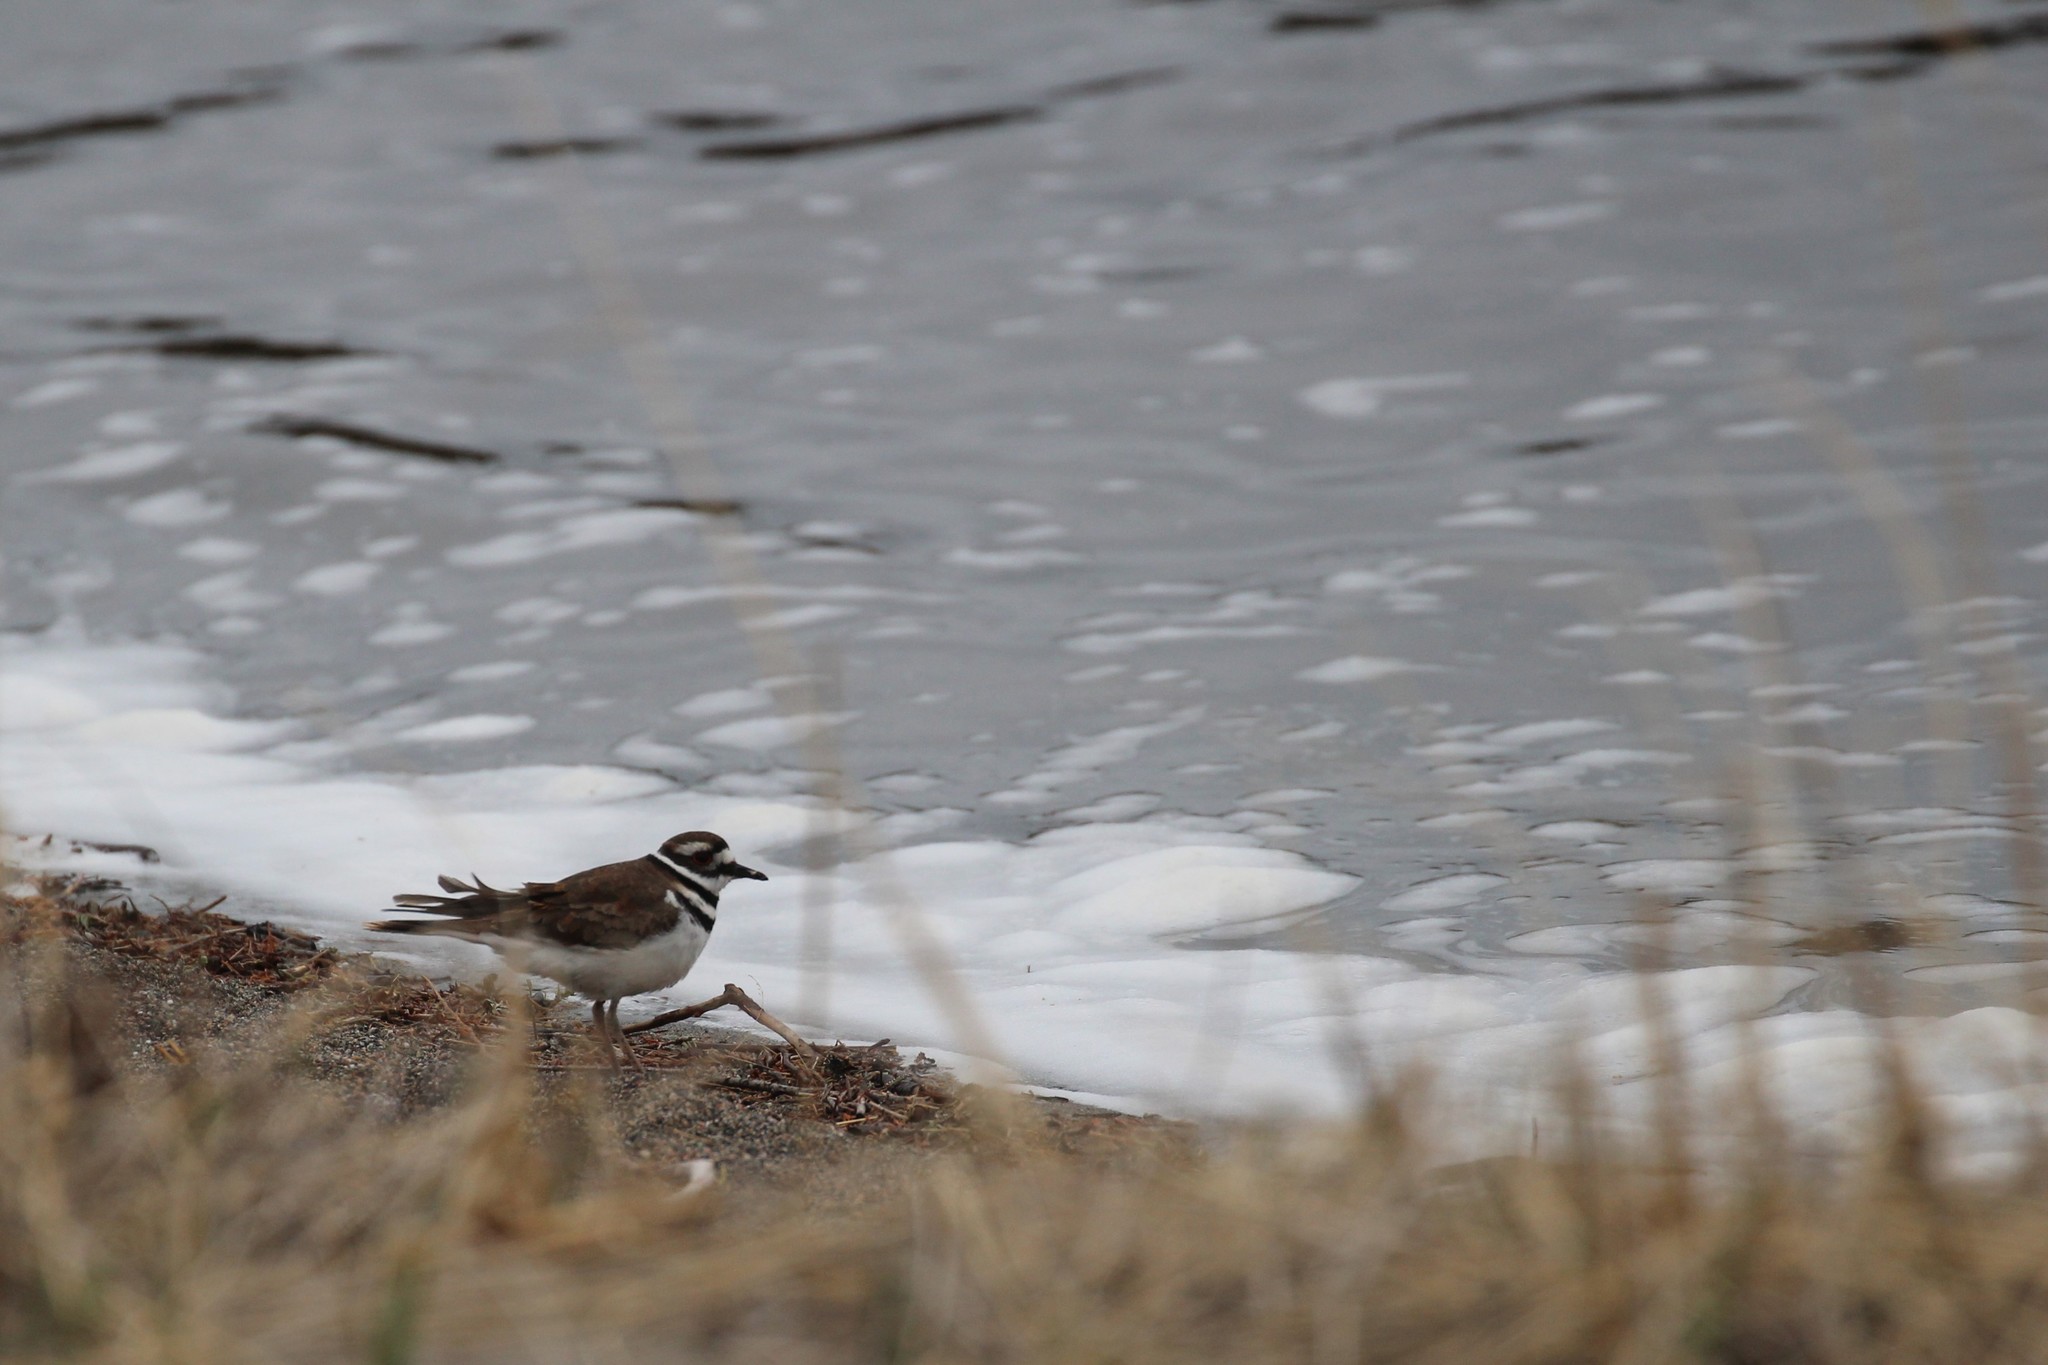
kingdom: Animalia
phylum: Chordata
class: Aves
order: Charadriiformes
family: Charadriidae
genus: Charadrius
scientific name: Charadrius vociferus
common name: Killdeer
